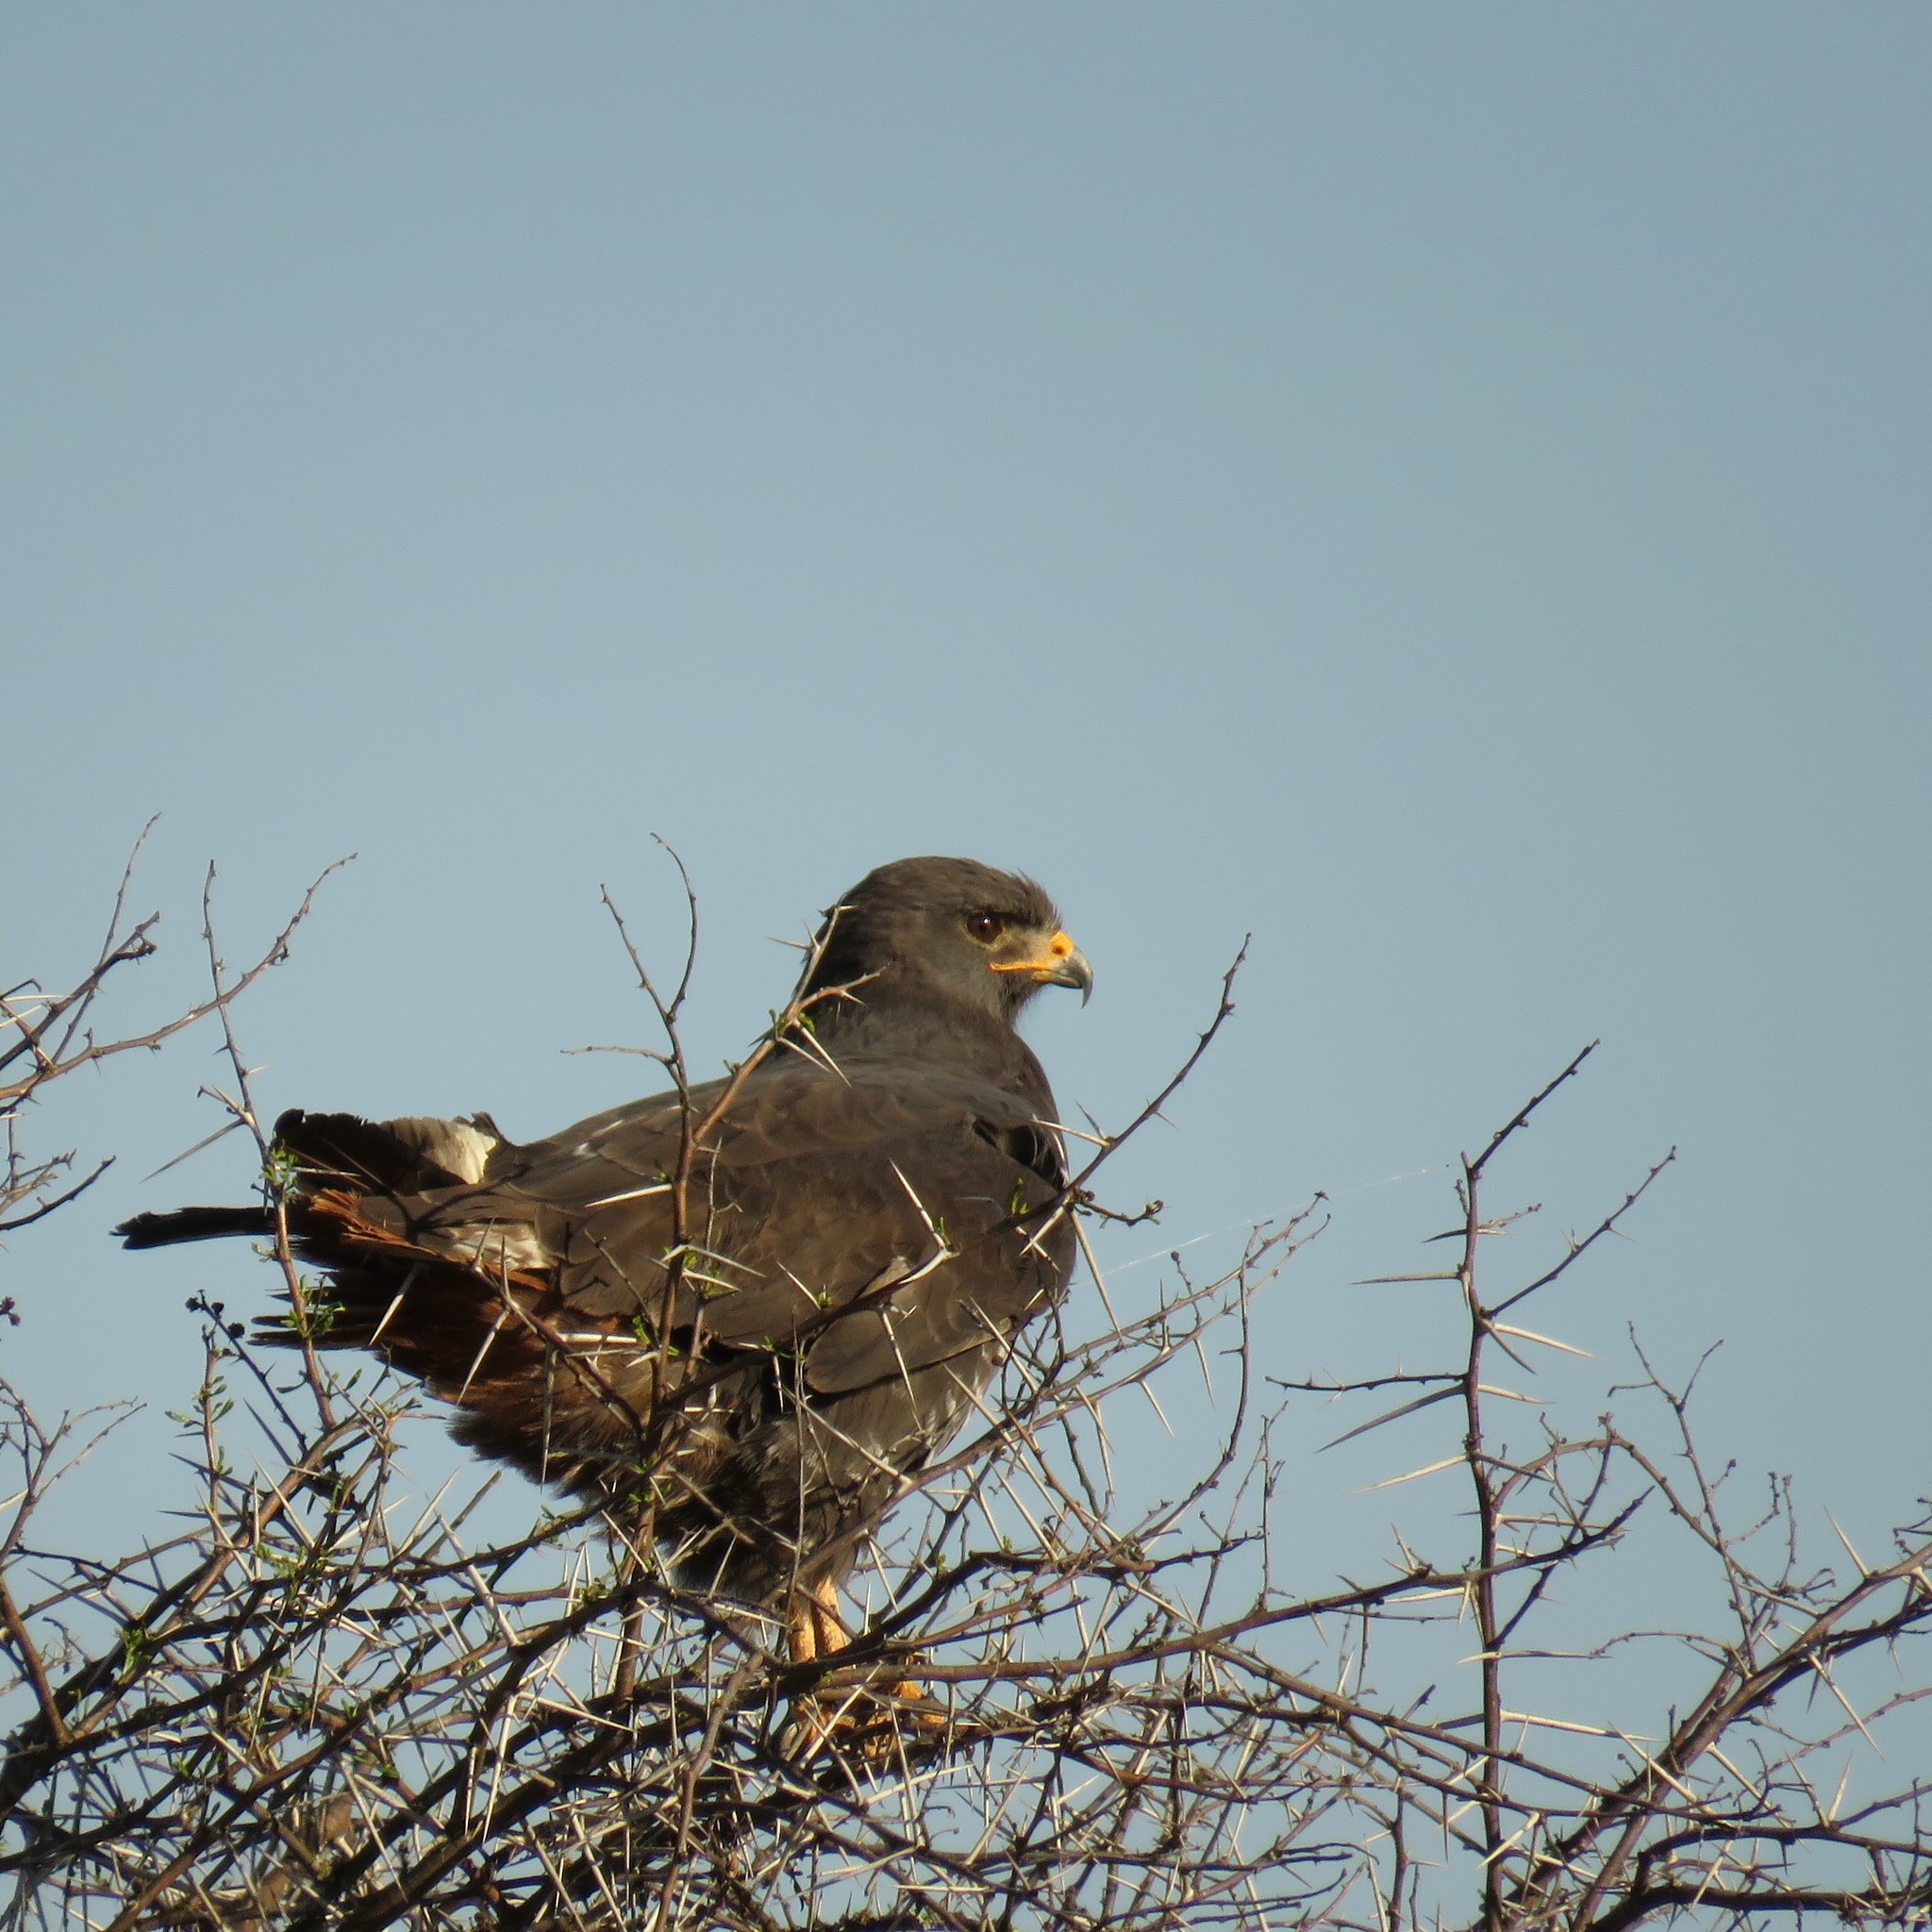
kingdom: Animalia
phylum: Chordata
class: Aves
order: Accipitriformes
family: Accipitridae
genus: Buteo
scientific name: Buteo rufofuscus
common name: Jackal buzzard
